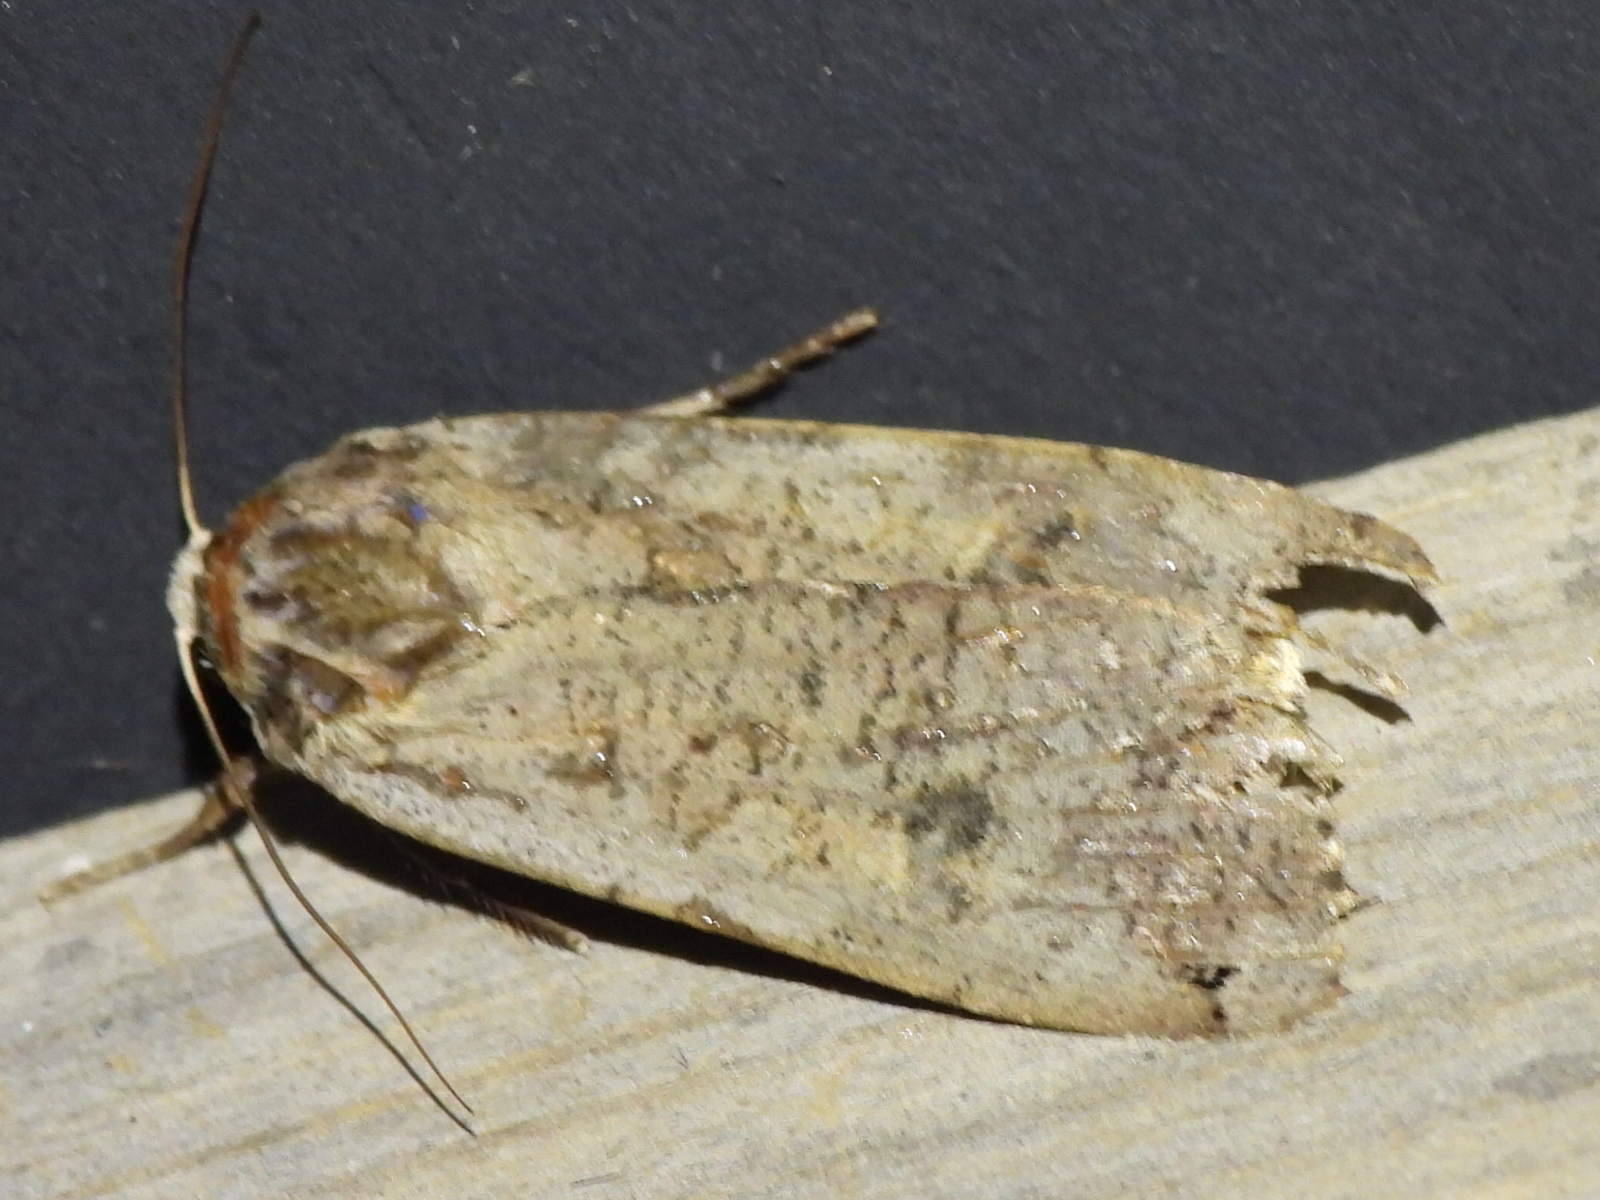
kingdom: Animalia
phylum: Arthropoda
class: Insecta
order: Lepidoptera
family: Noctuidae
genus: Noctua
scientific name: Noctua pronuba
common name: Large yellow underwing
